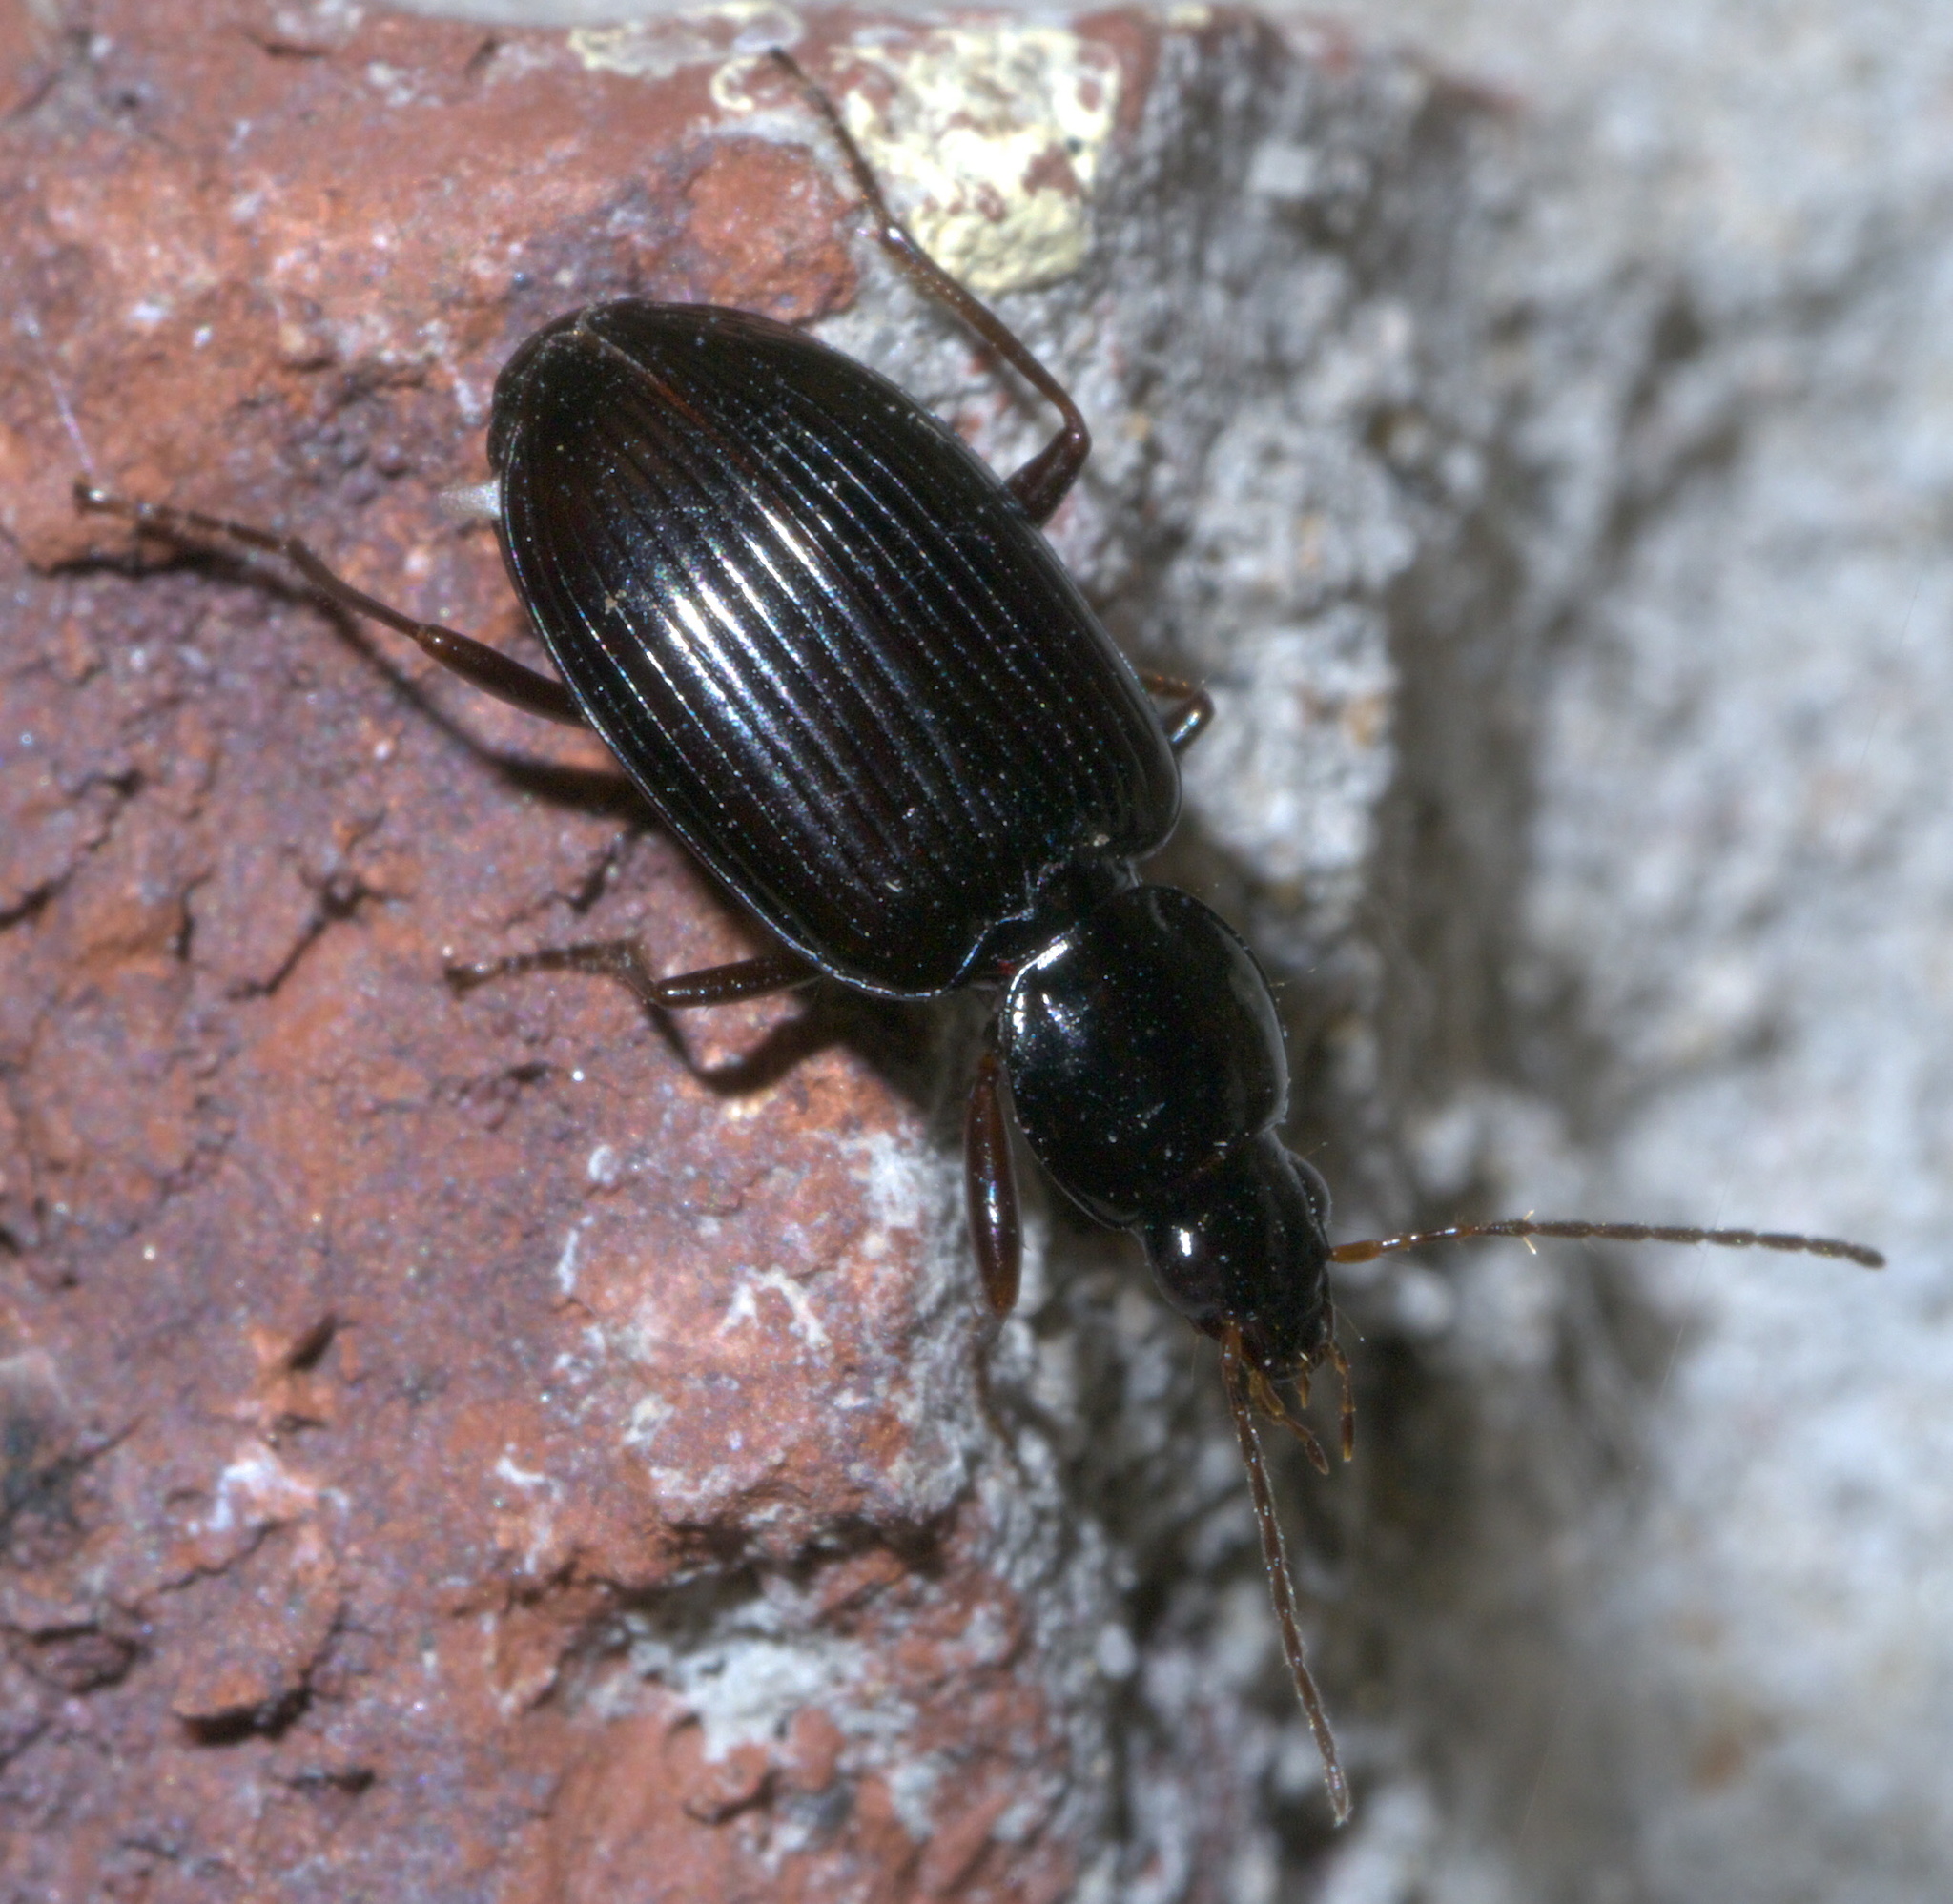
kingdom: Animalia
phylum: Arthropoda
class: Insecta
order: Coleoptera
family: Carabidae
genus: Agonum
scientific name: Agonum punctiforme
